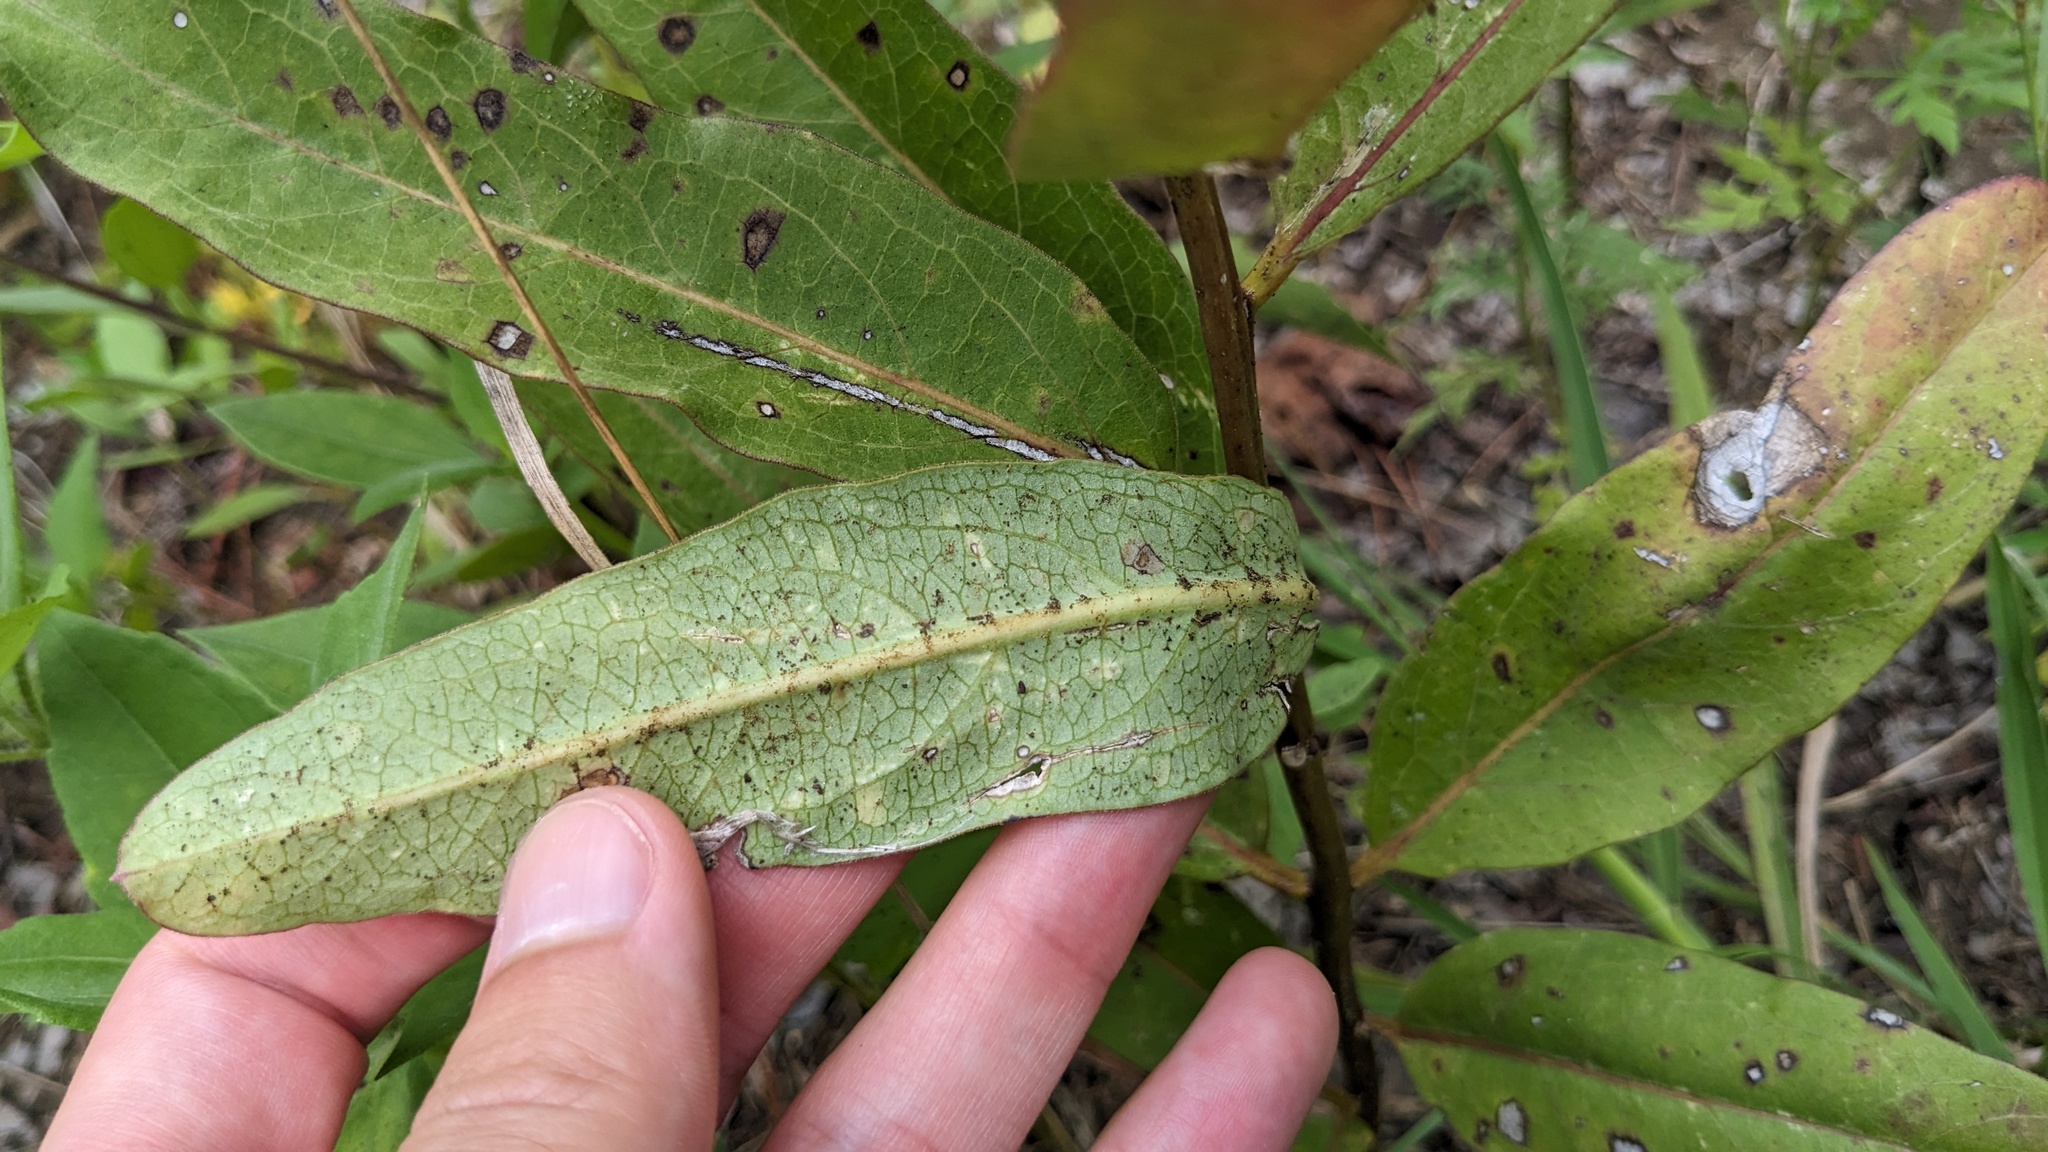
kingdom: Plantae
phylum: Tracheophyta
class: Magnoliopsida
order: Gentianales
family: Apocynaceae
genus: Asclepias
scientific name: Asclepias viridis
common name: Antelope-horns
